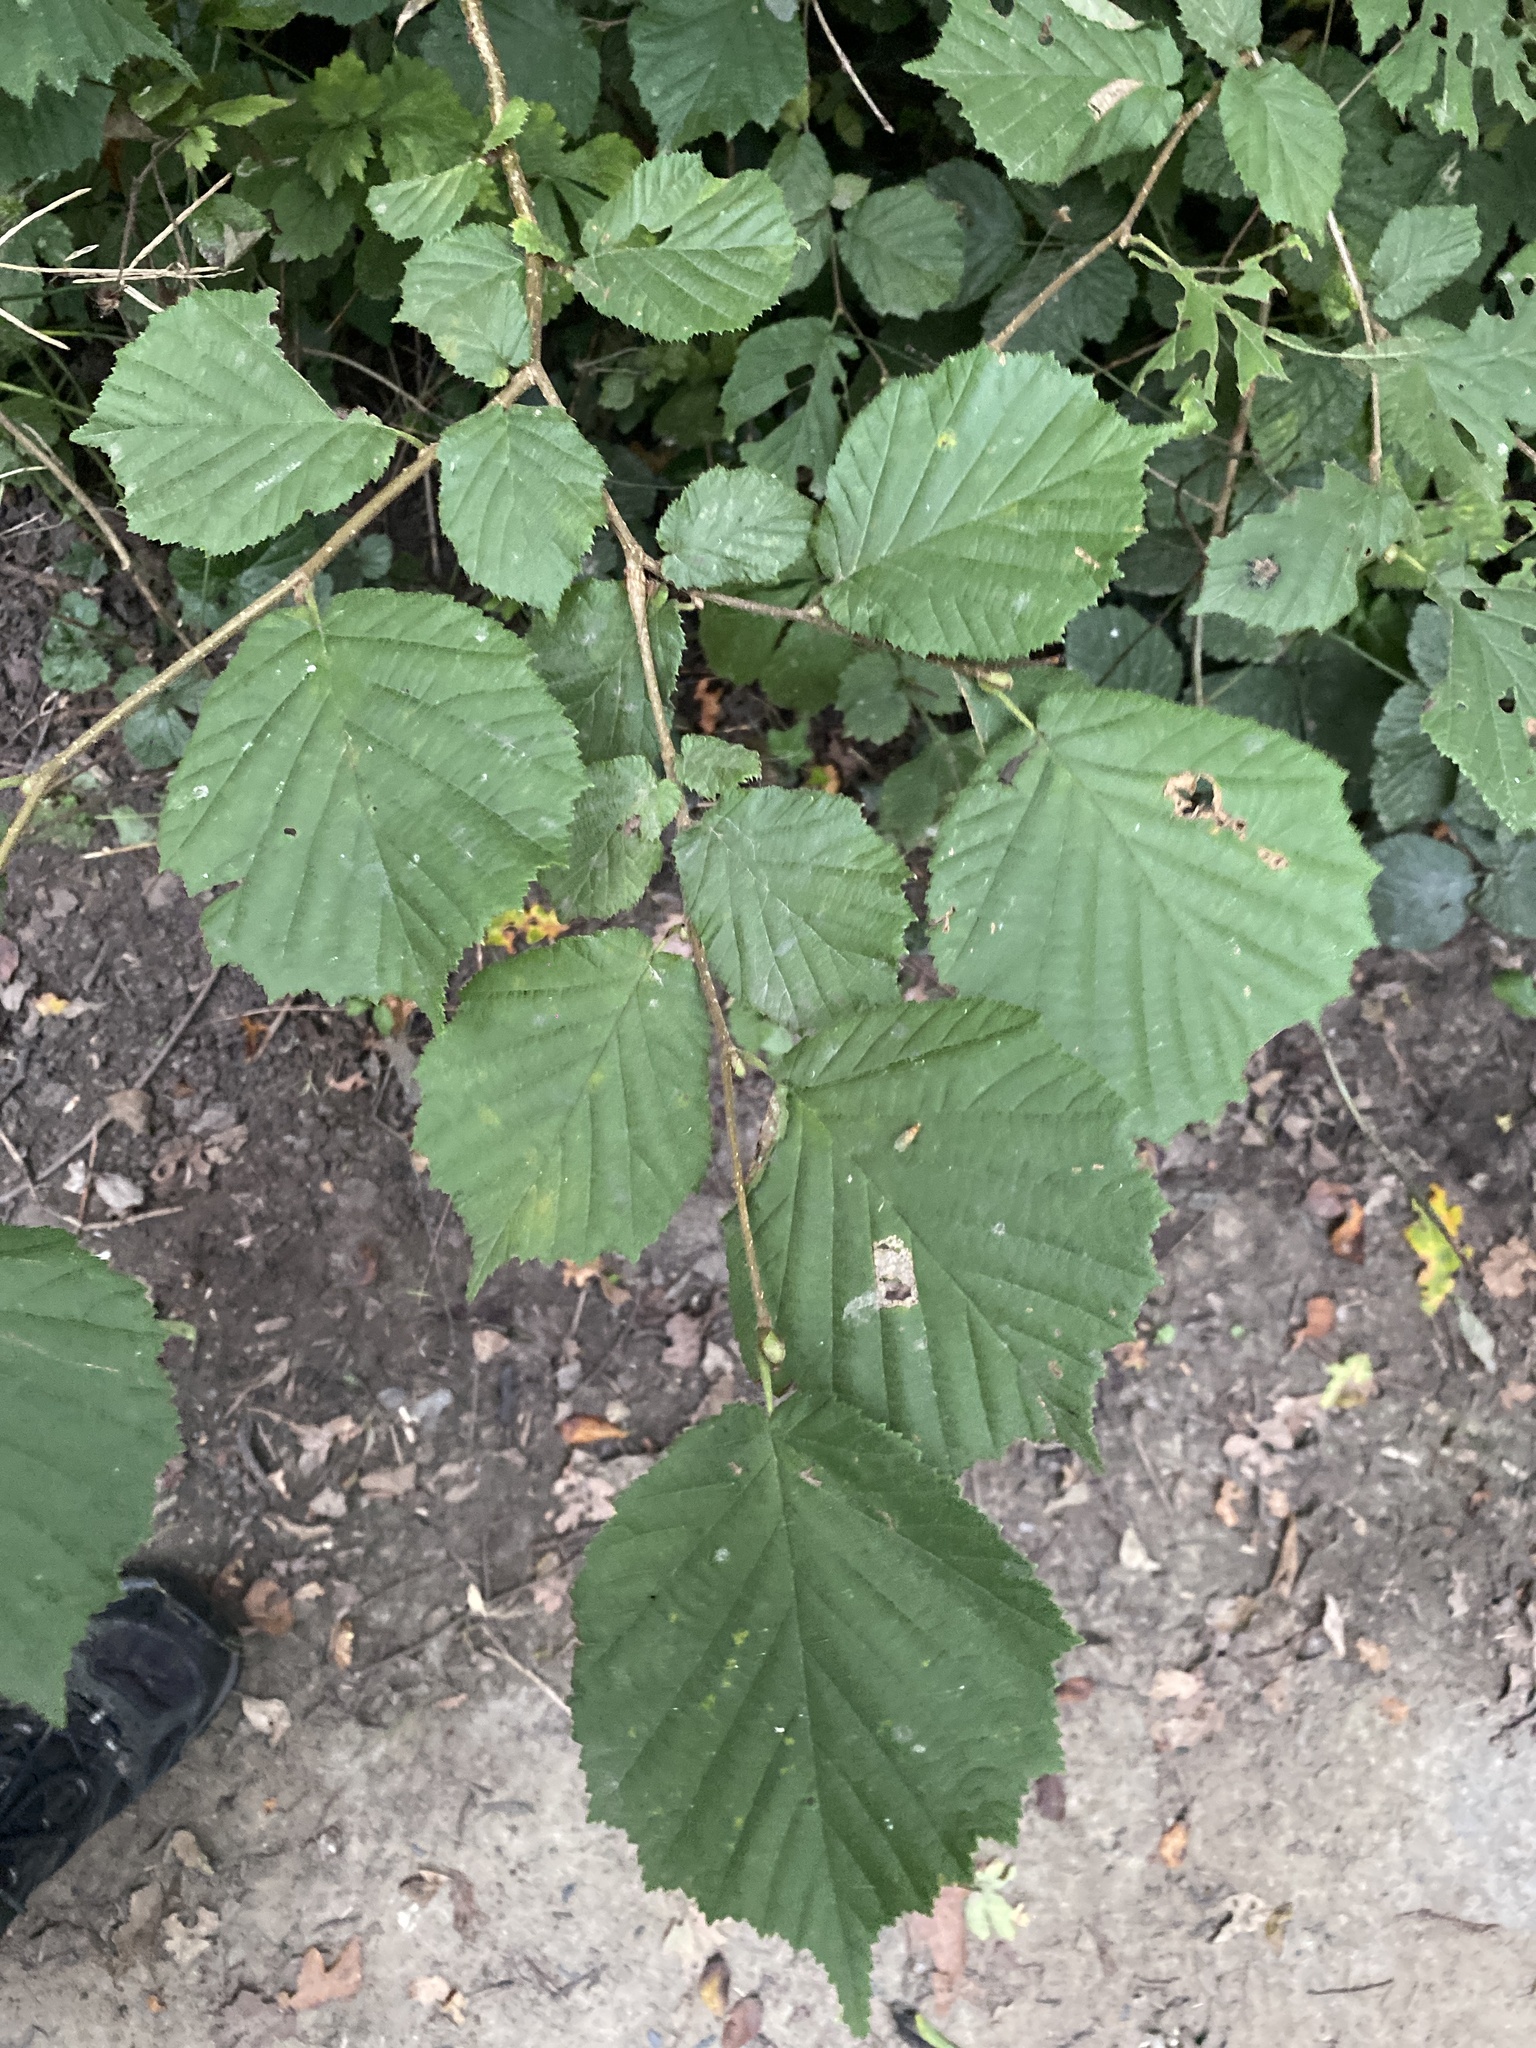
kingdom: Plantae
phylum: Tracheophyta
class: Magnoliopsida
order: Fagales
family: Betulaceae
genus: Corylus
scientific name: Corylus avellana
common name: European hazel
